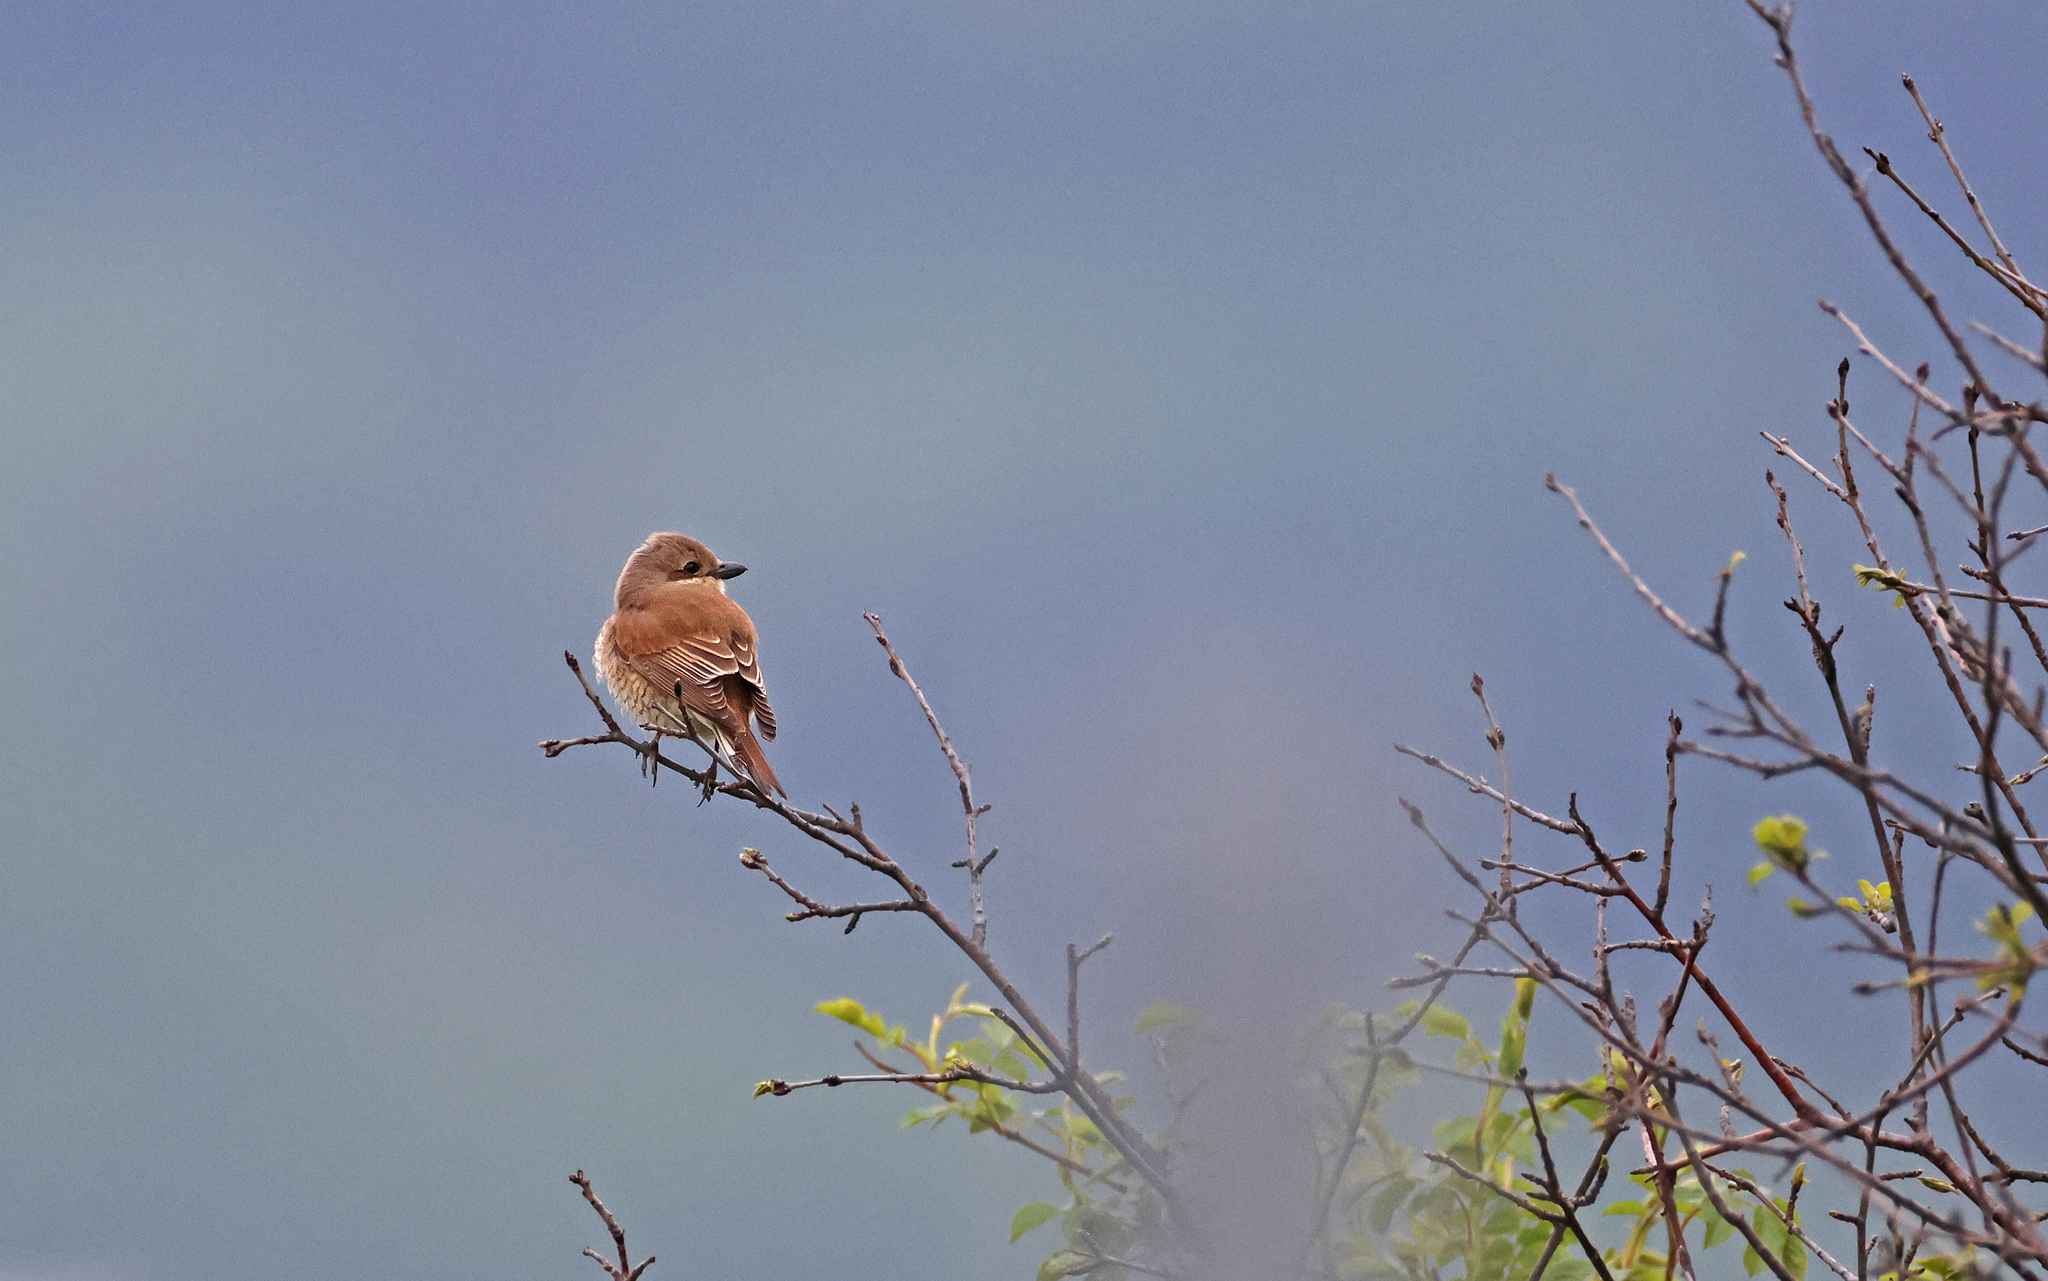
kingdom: Animalia
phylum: Chordata
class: Aves
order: Passeriformes
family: Laniidae
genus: Lanius
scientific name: Lanius collurio
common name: Red-backed shrike
